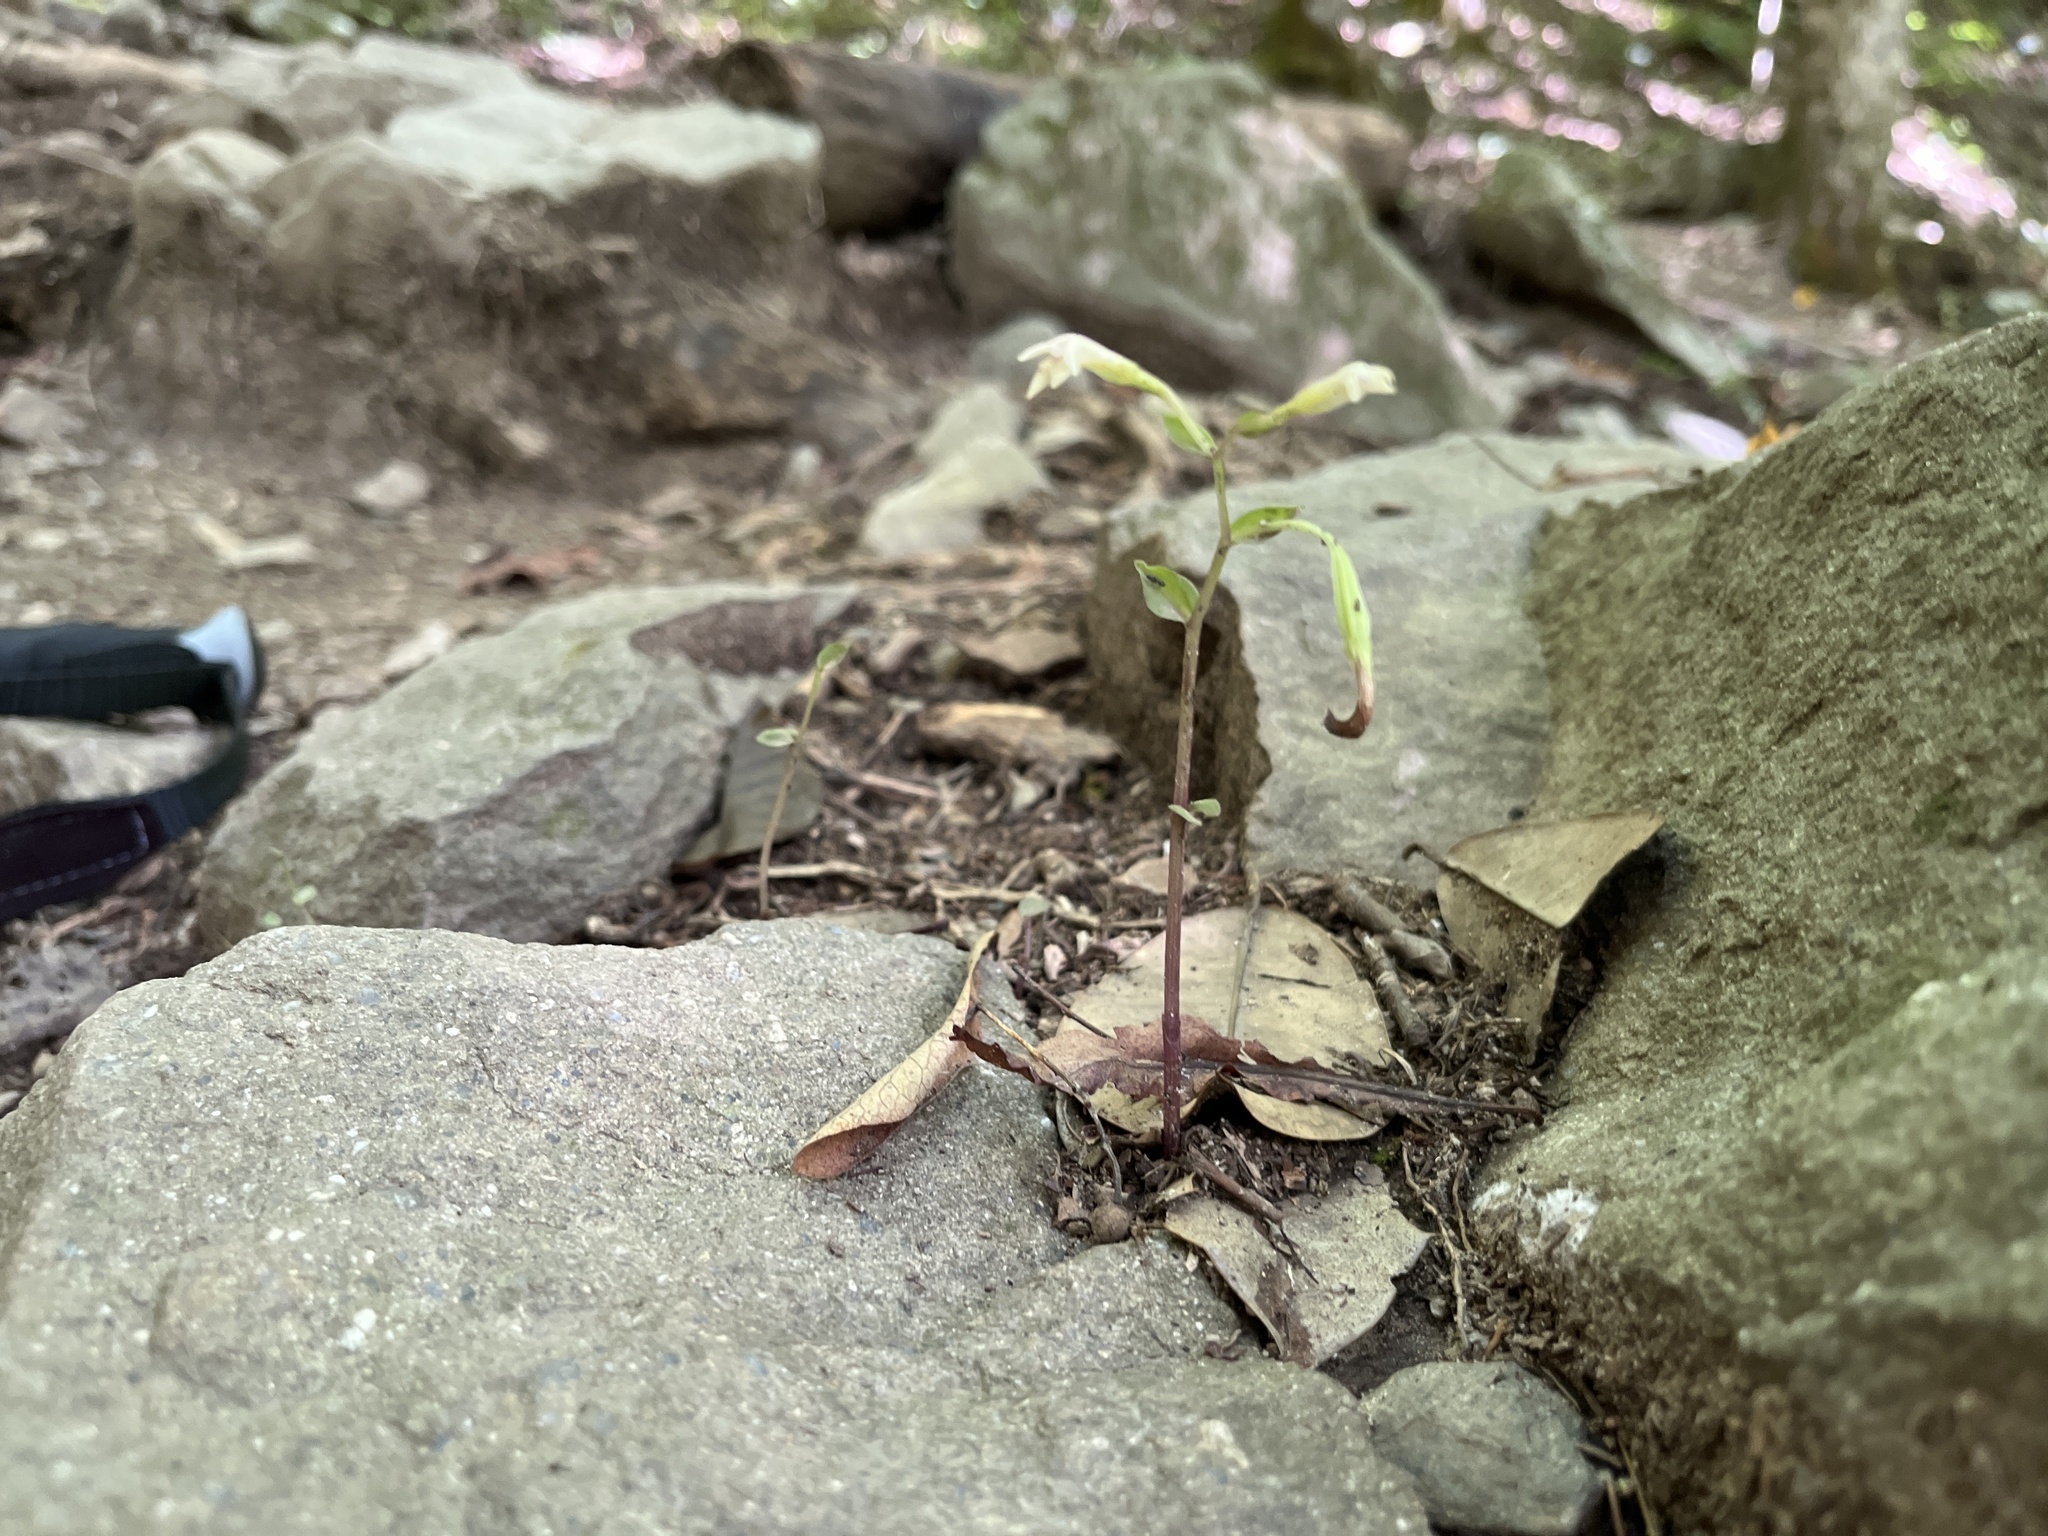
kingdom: Plantae
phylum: Tracheophyta
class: Liliopsida
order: Asparagales
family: Orchidaceae
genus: Triphora
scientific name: Triphora trianthophoros
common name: Three birds orchid
